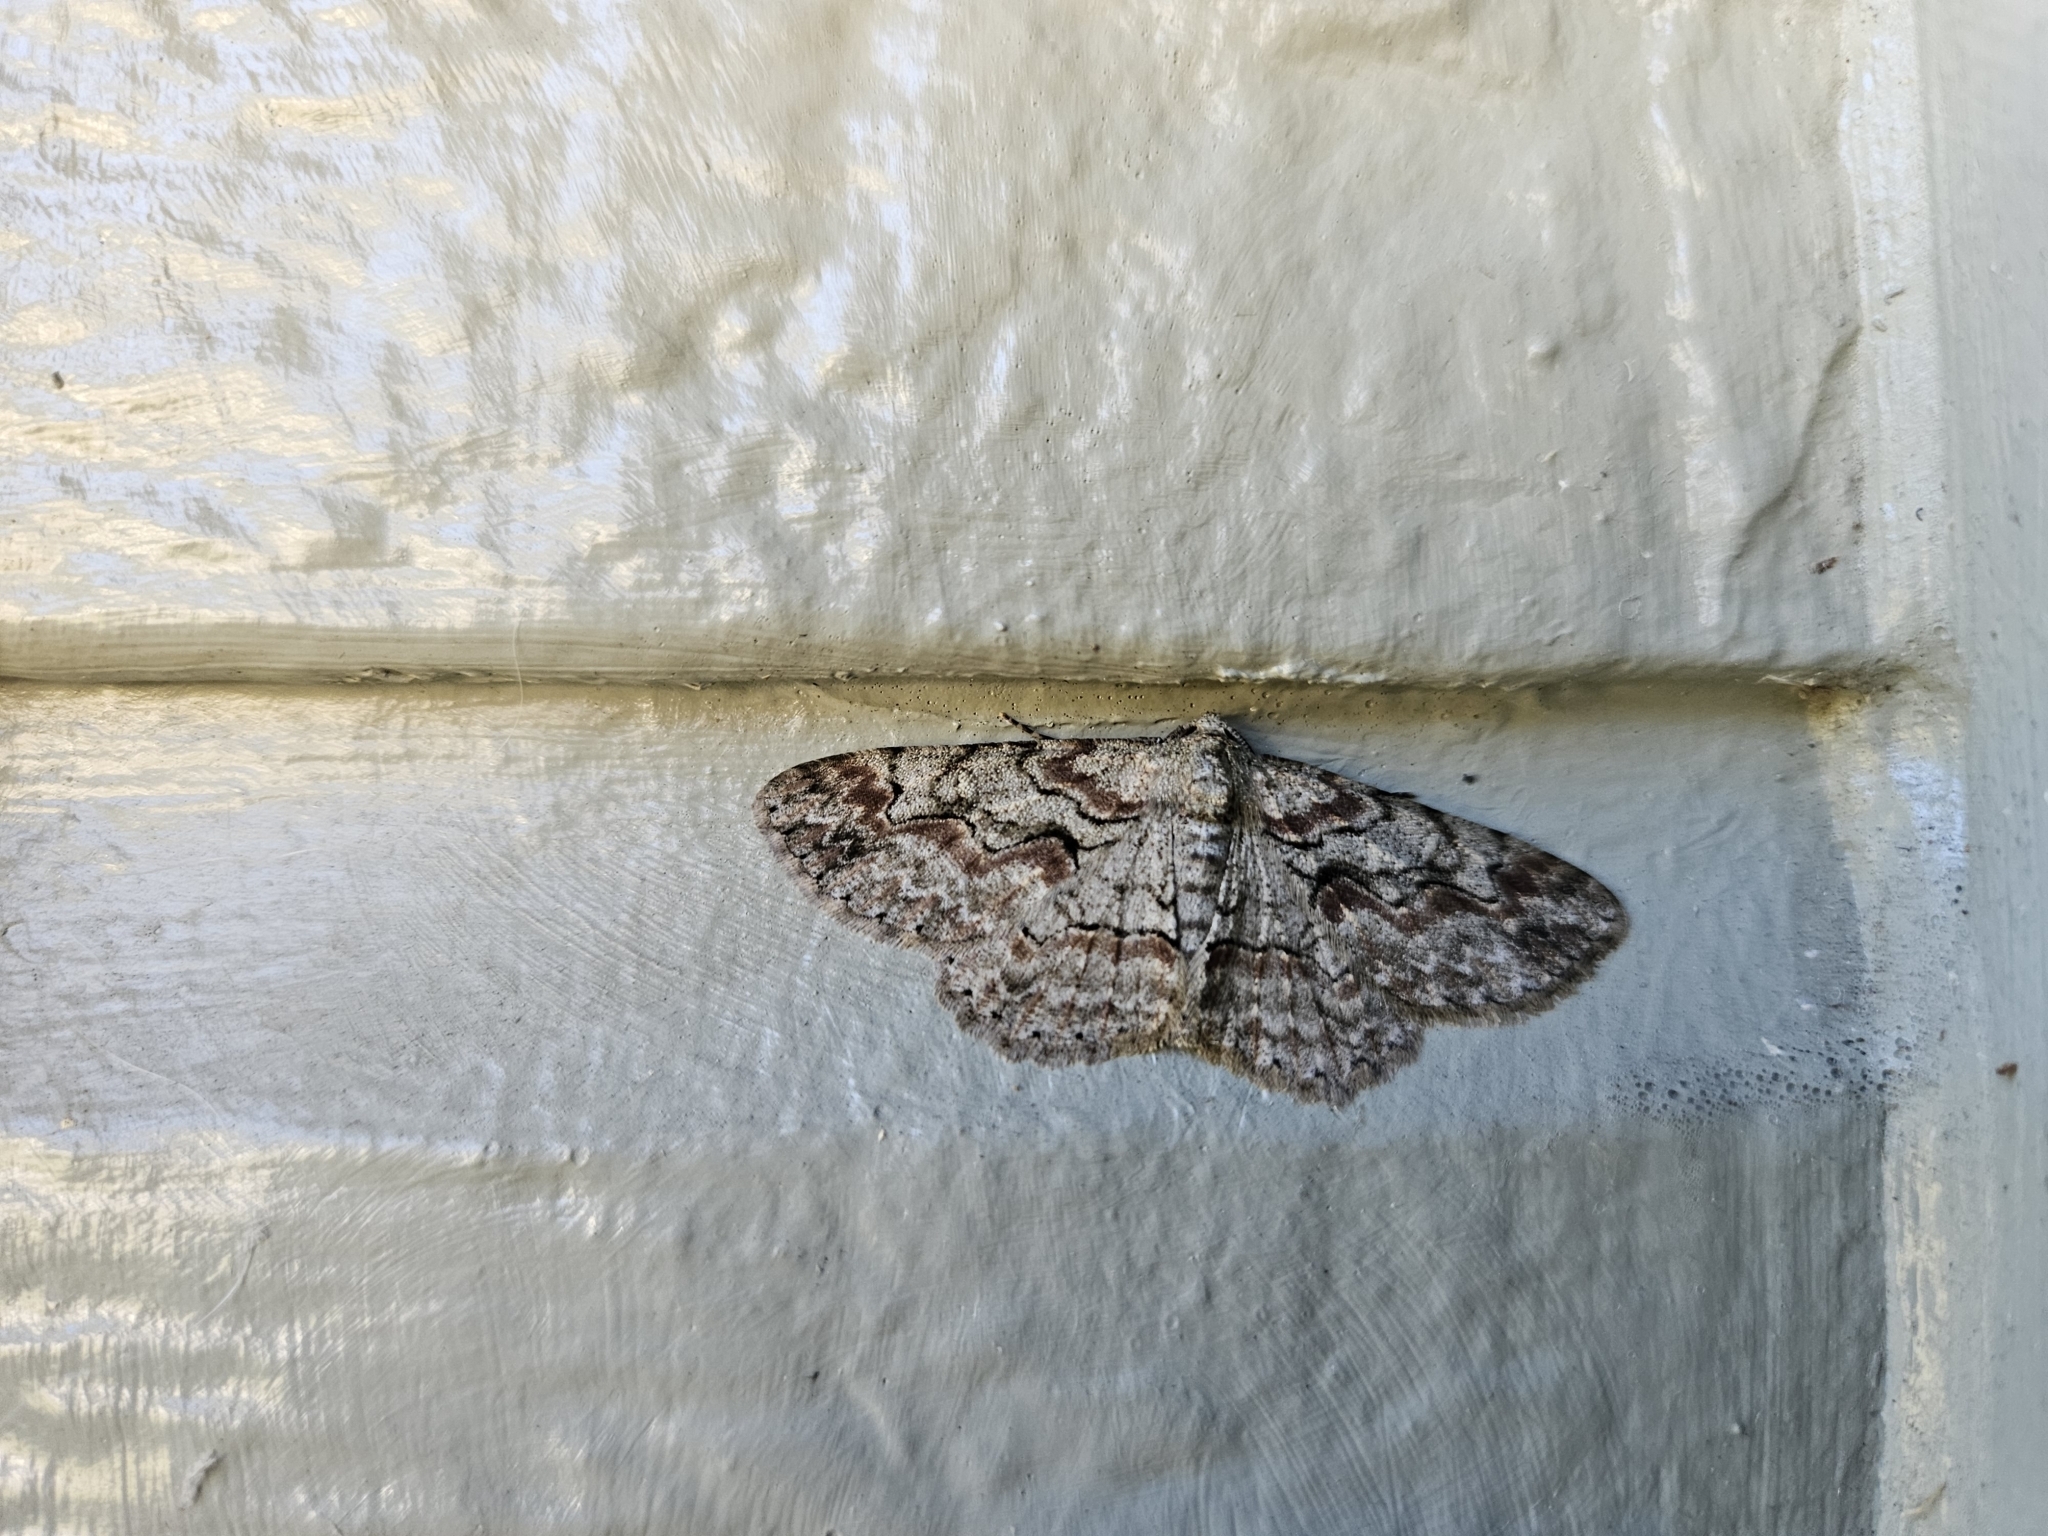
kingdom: Animalia
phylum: Arthropoda
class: Insecta
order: Lepidoptera
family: Geometridae
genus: Iridopsis
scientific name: Iridopsis defectaria
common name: Brown-shaded gray
